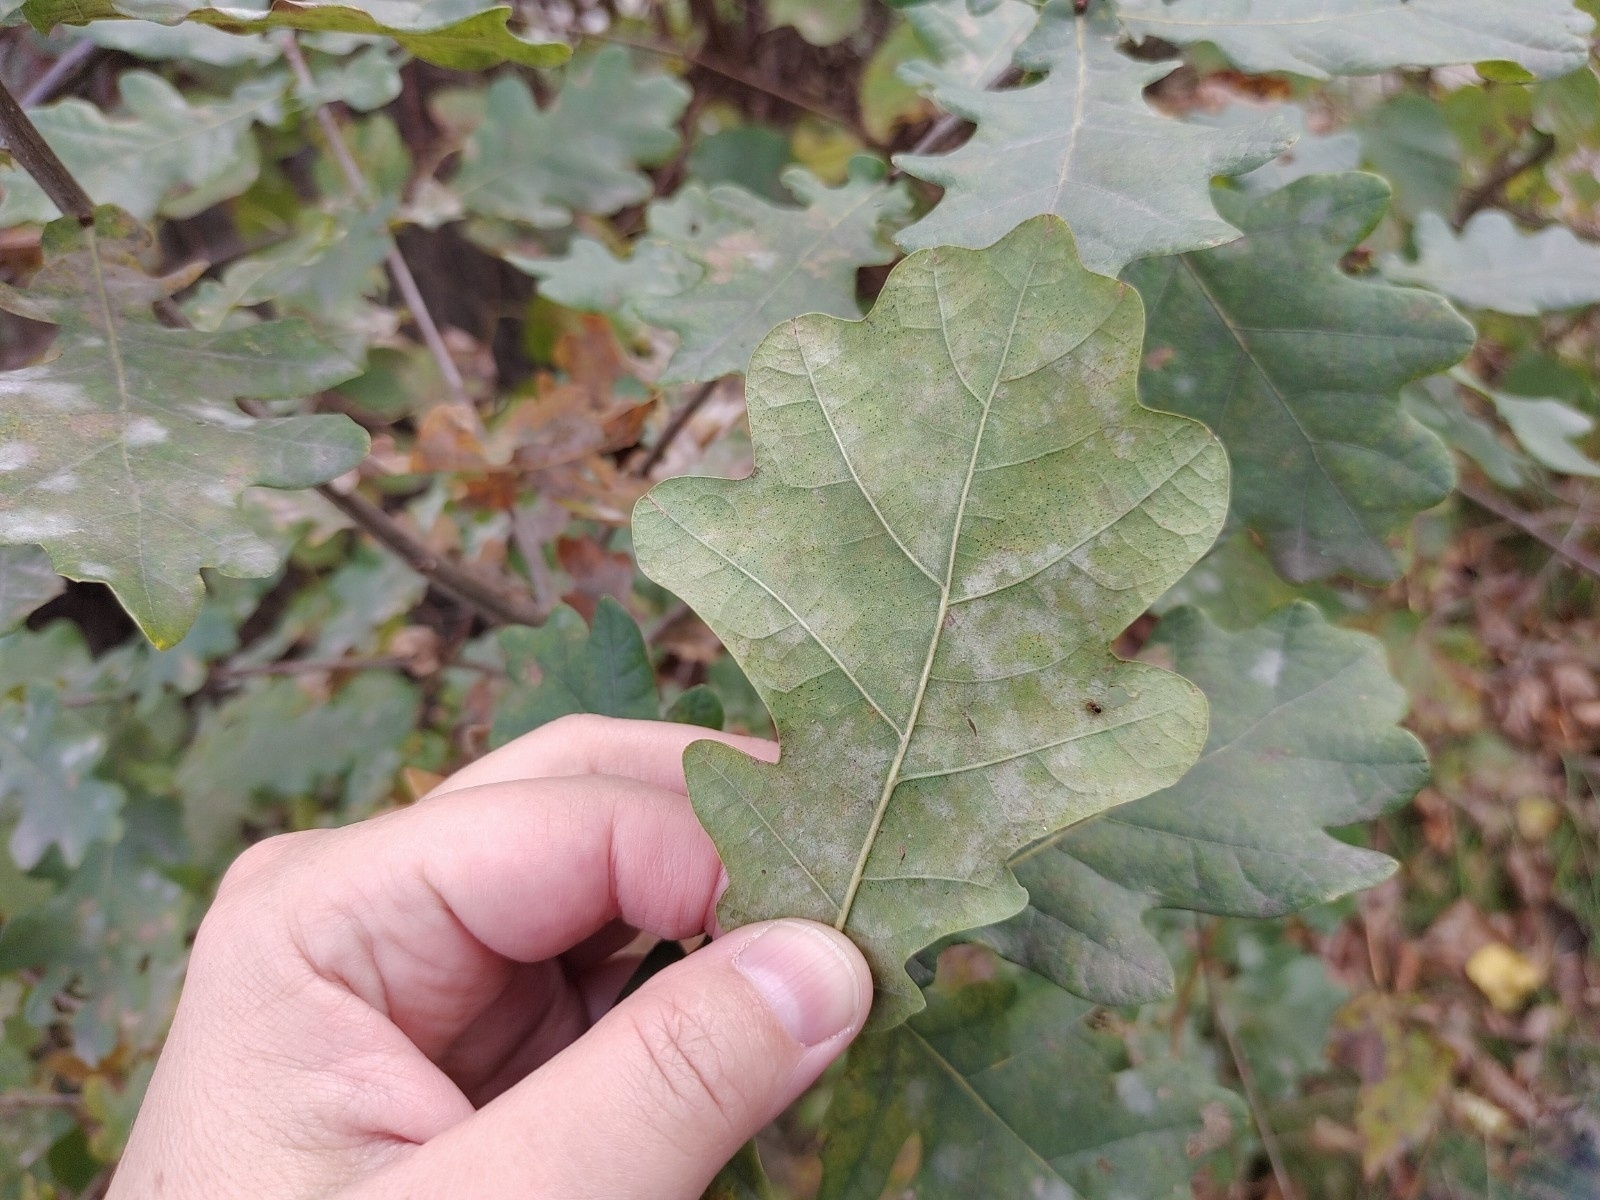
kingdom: Plantae
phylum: Tracheophyta
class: Magnoliopsida
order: Fagales
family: Fagaceae
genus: Quercus
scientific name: Quercus robur
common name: Pedunculate oak
